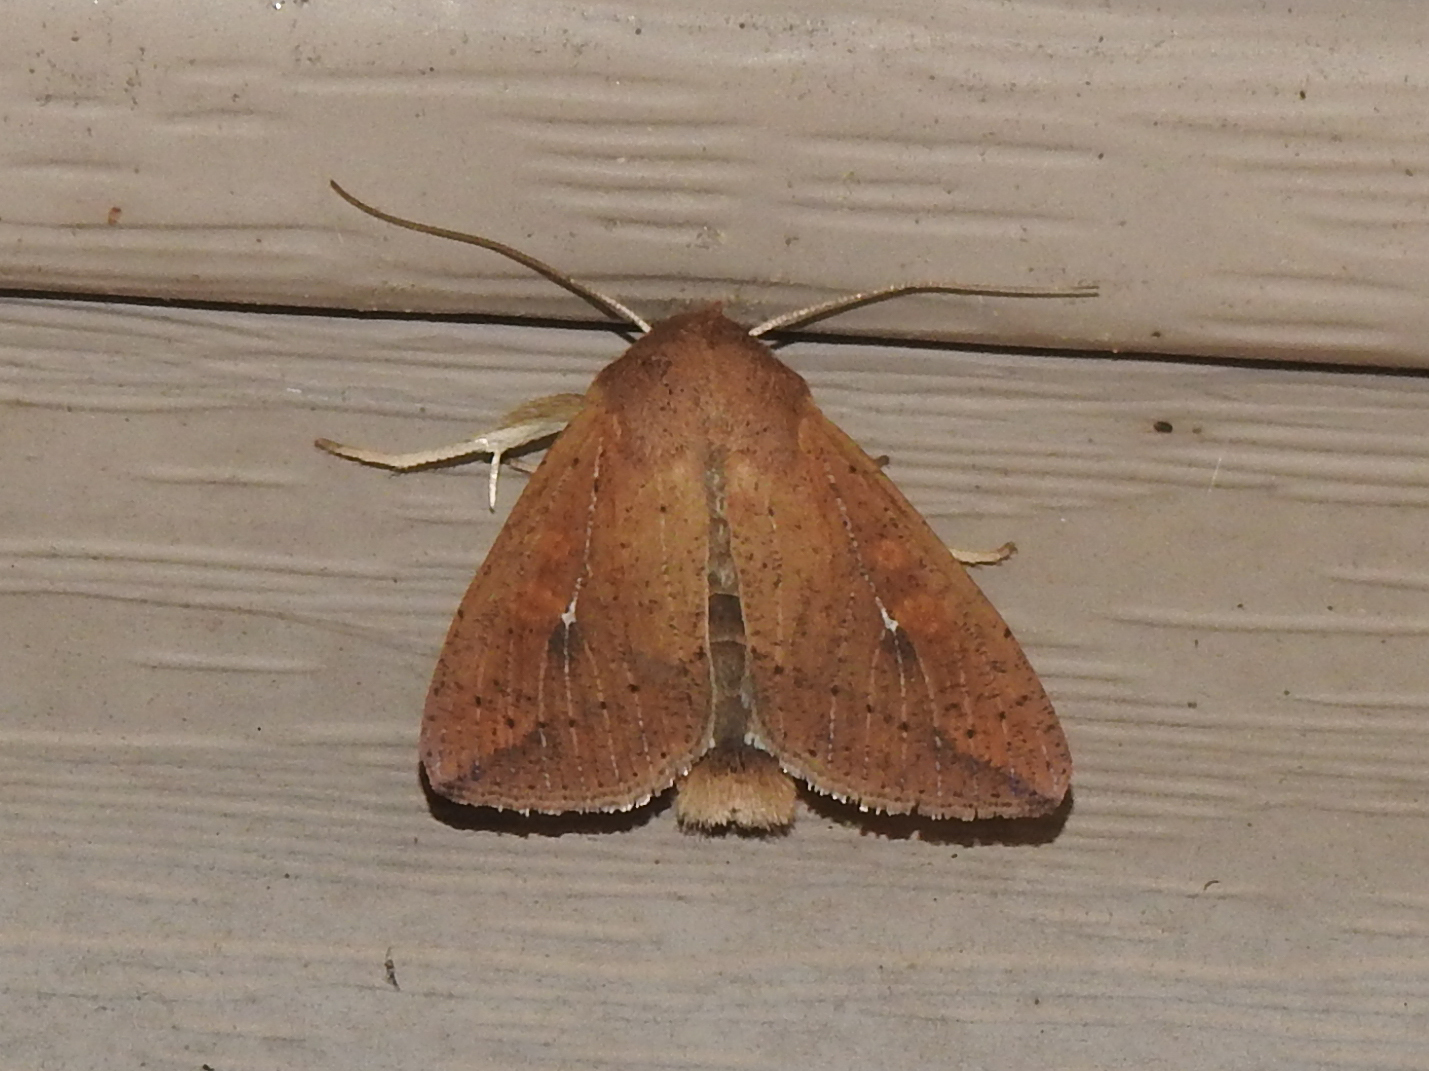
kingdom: Animalia
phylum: Arthropoda
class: Insecta
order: Lepidoptera
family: Noctuidae
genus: Mythimna
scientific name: Mythimna unipuncta
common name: White-speck
